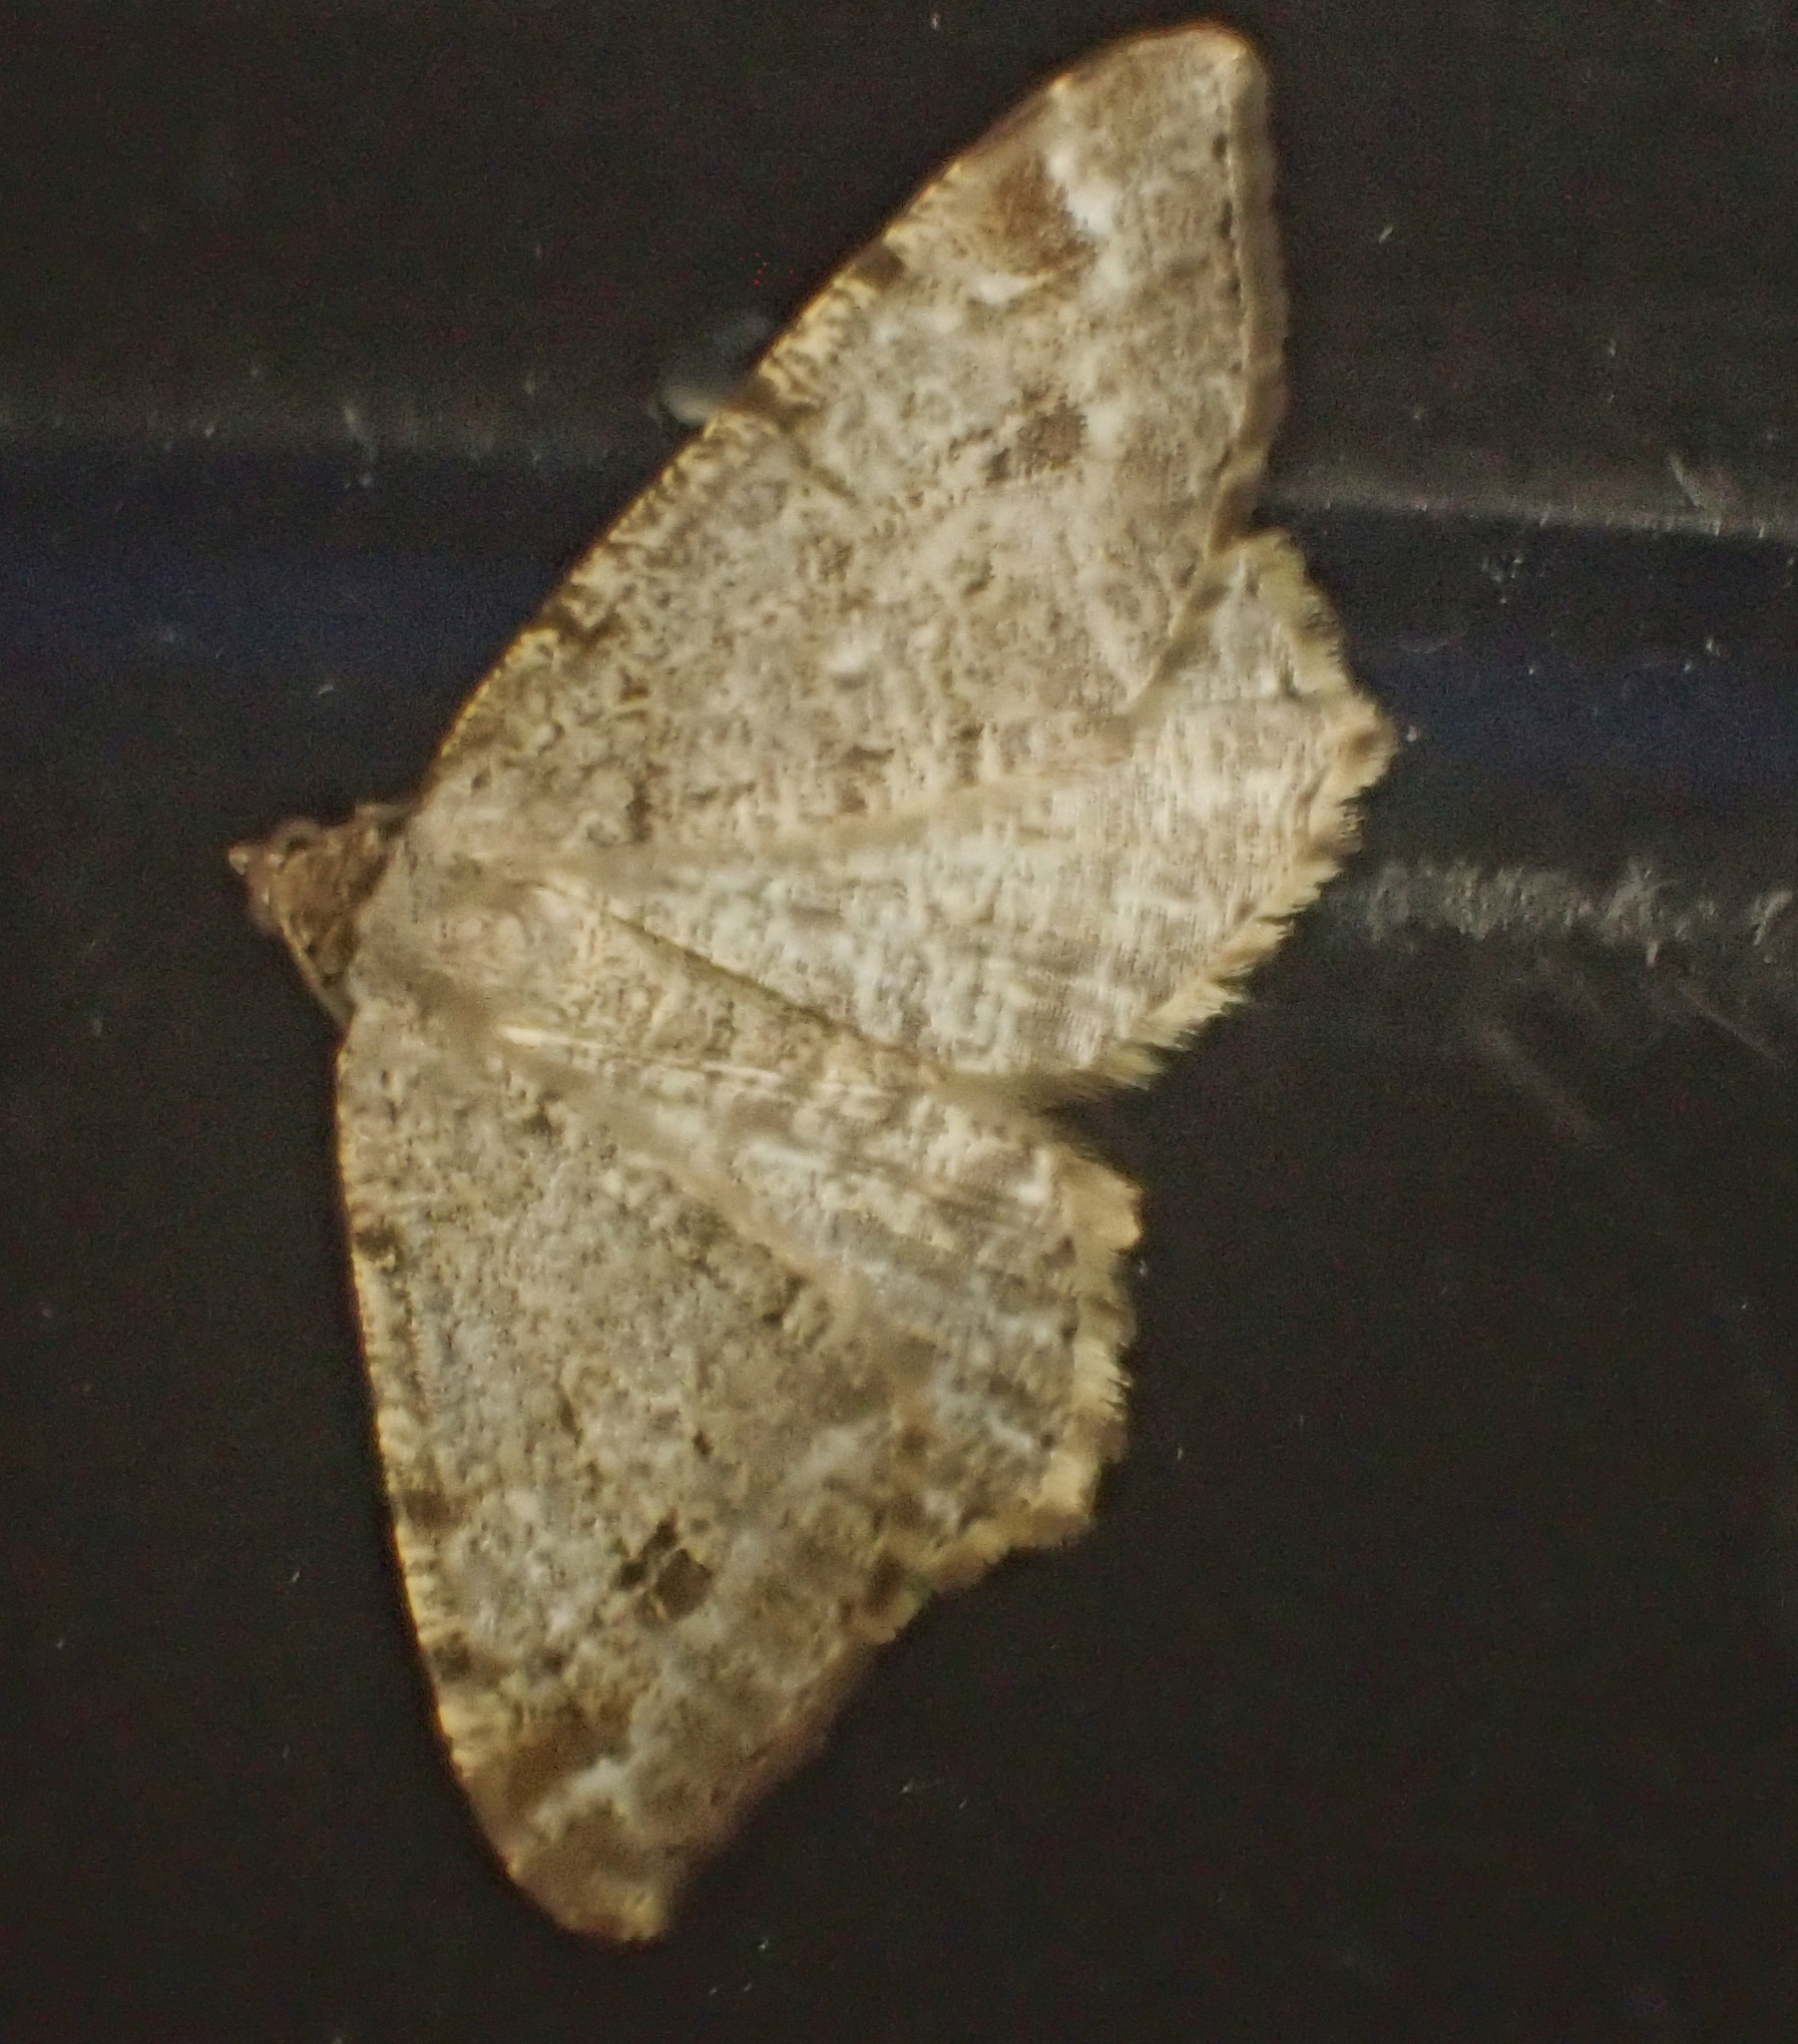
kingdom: Animalia
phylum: Arthropoda
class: Insecta
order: Lepidoptera
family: Geometridae
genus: Macaria
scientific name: Macaria signaria
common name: Dusky peacock
